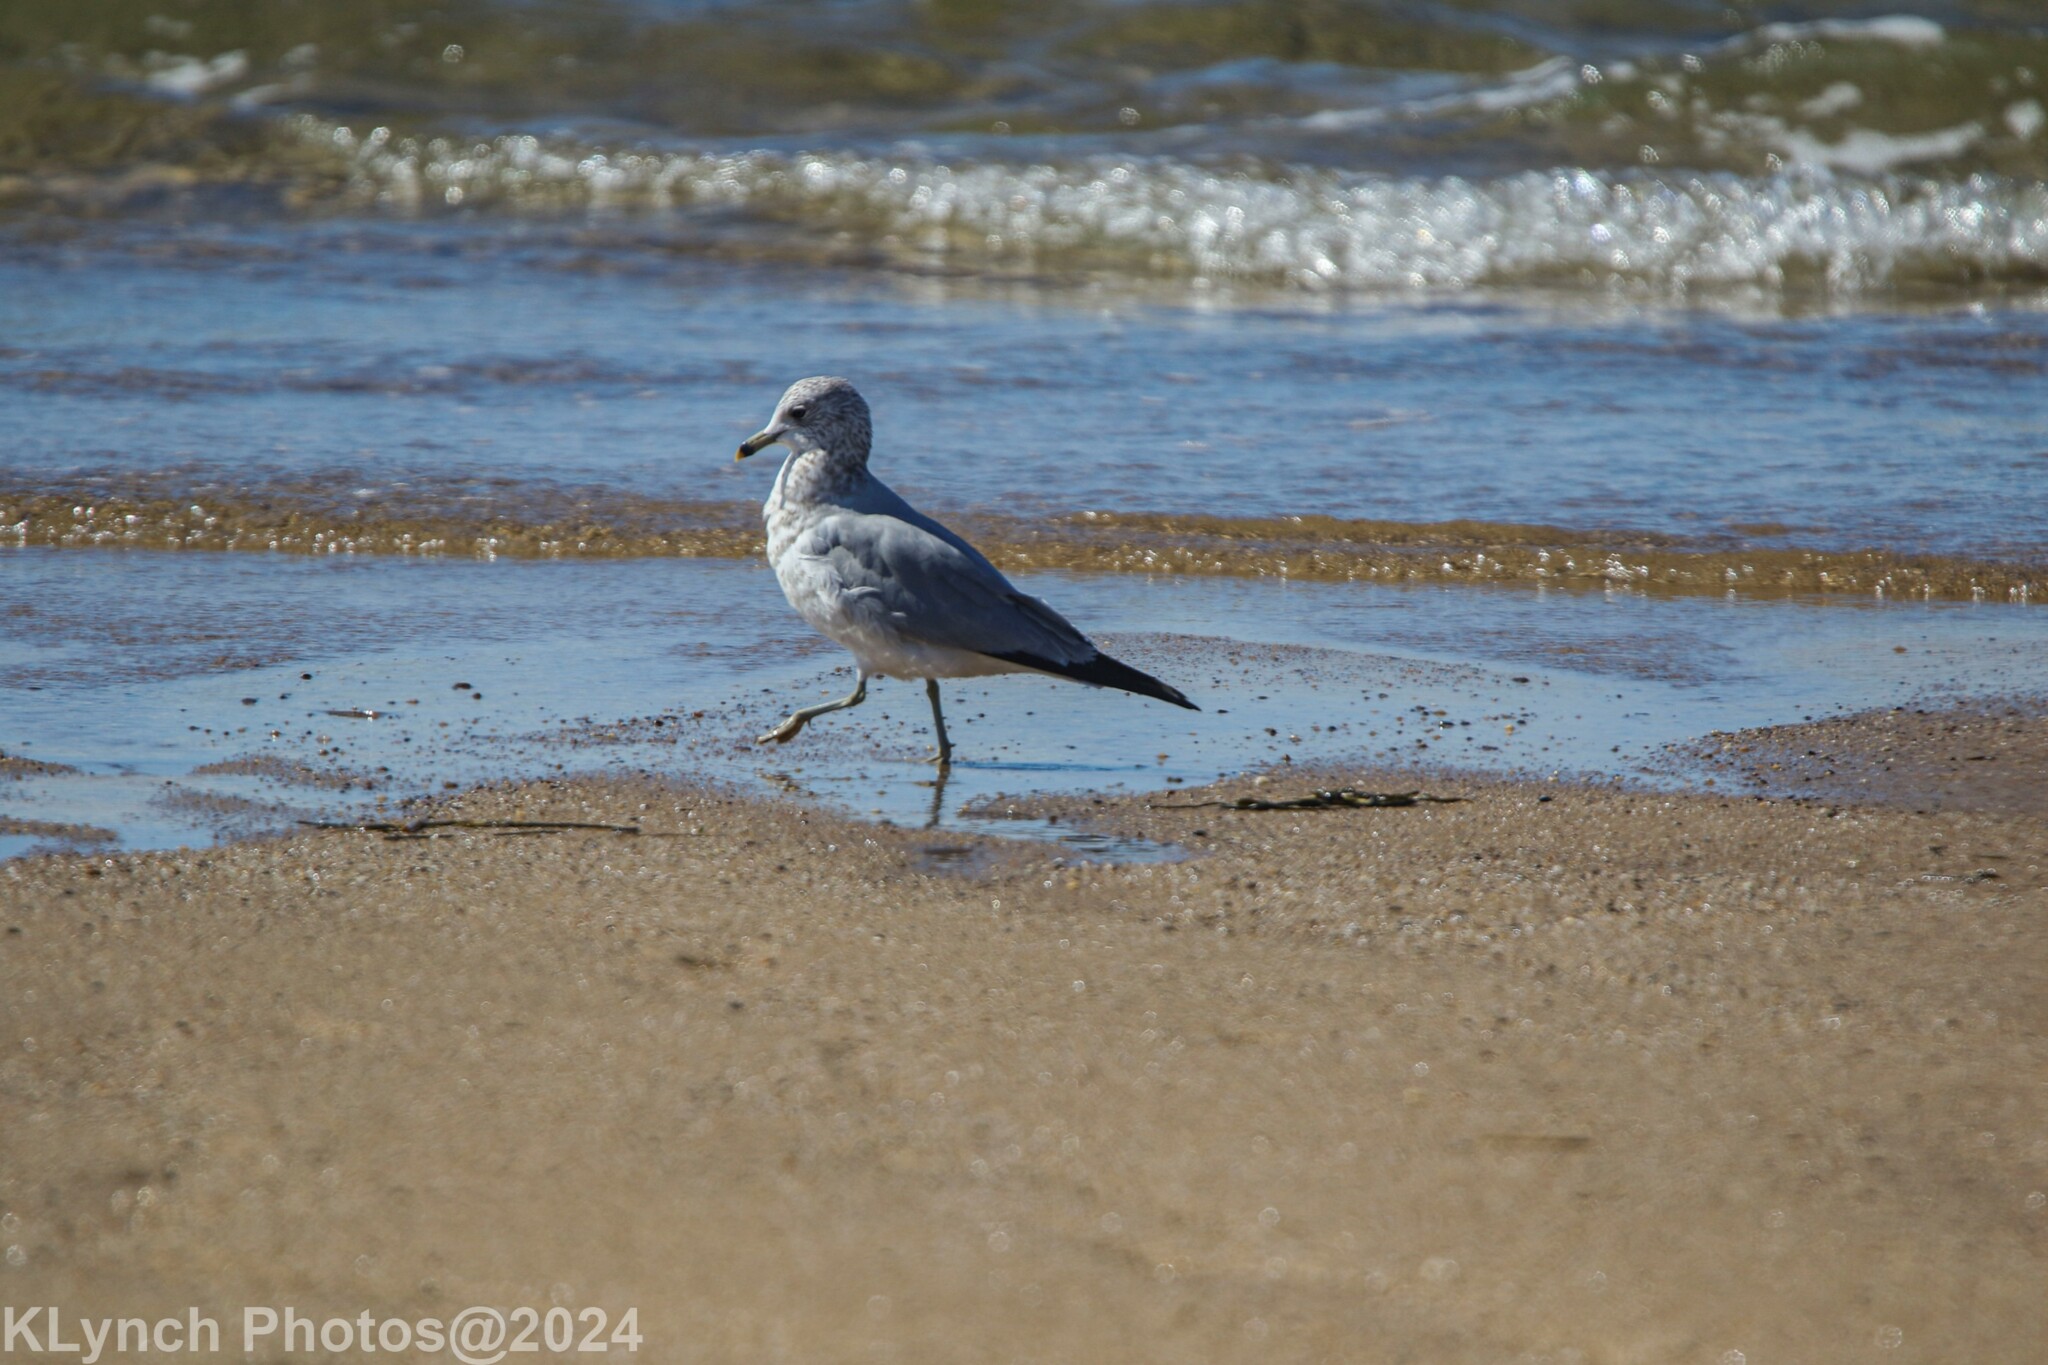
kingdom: Animalia
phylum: Chordata
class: Aves
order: Charadriiformes
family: Laridae
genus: Larus
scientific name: Larus delawarensis
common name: Ring-billed gull
